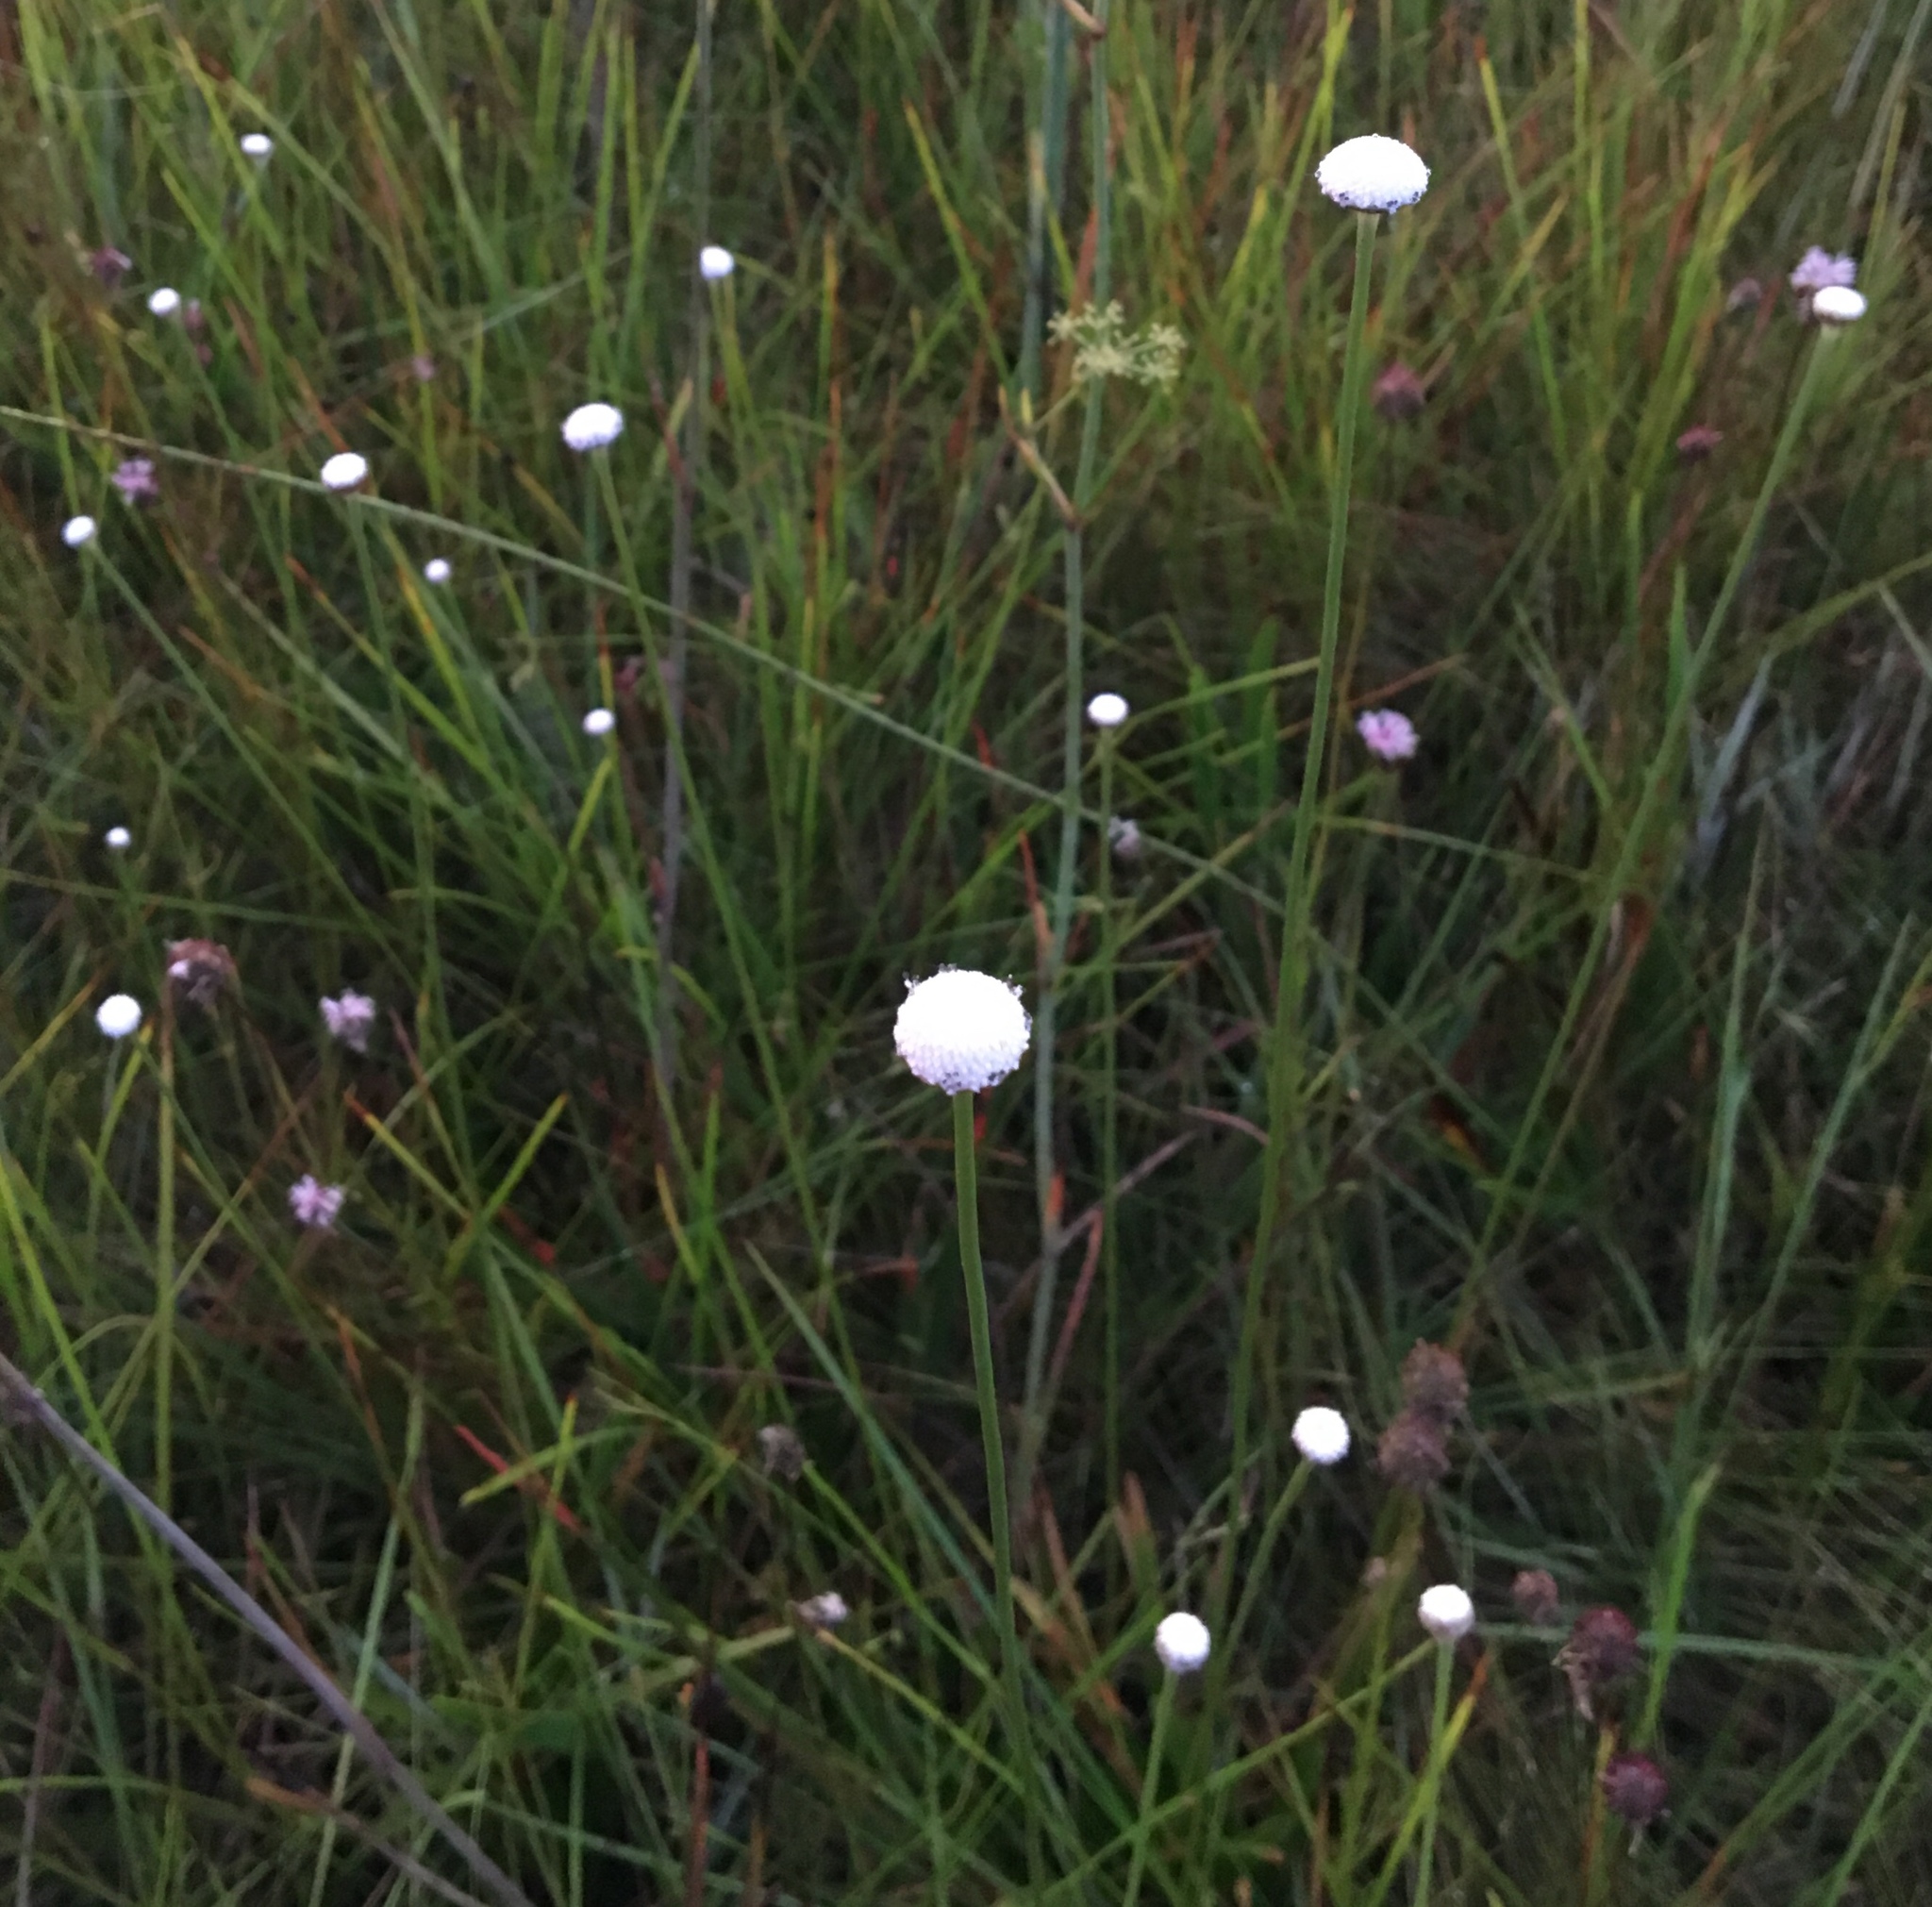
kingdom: Plantae
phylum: Tracheophyta
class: Liliopsida
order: Poales
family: Eriocaulaceae
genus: Eriocaulon
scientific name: Eriocaulon decangulare
